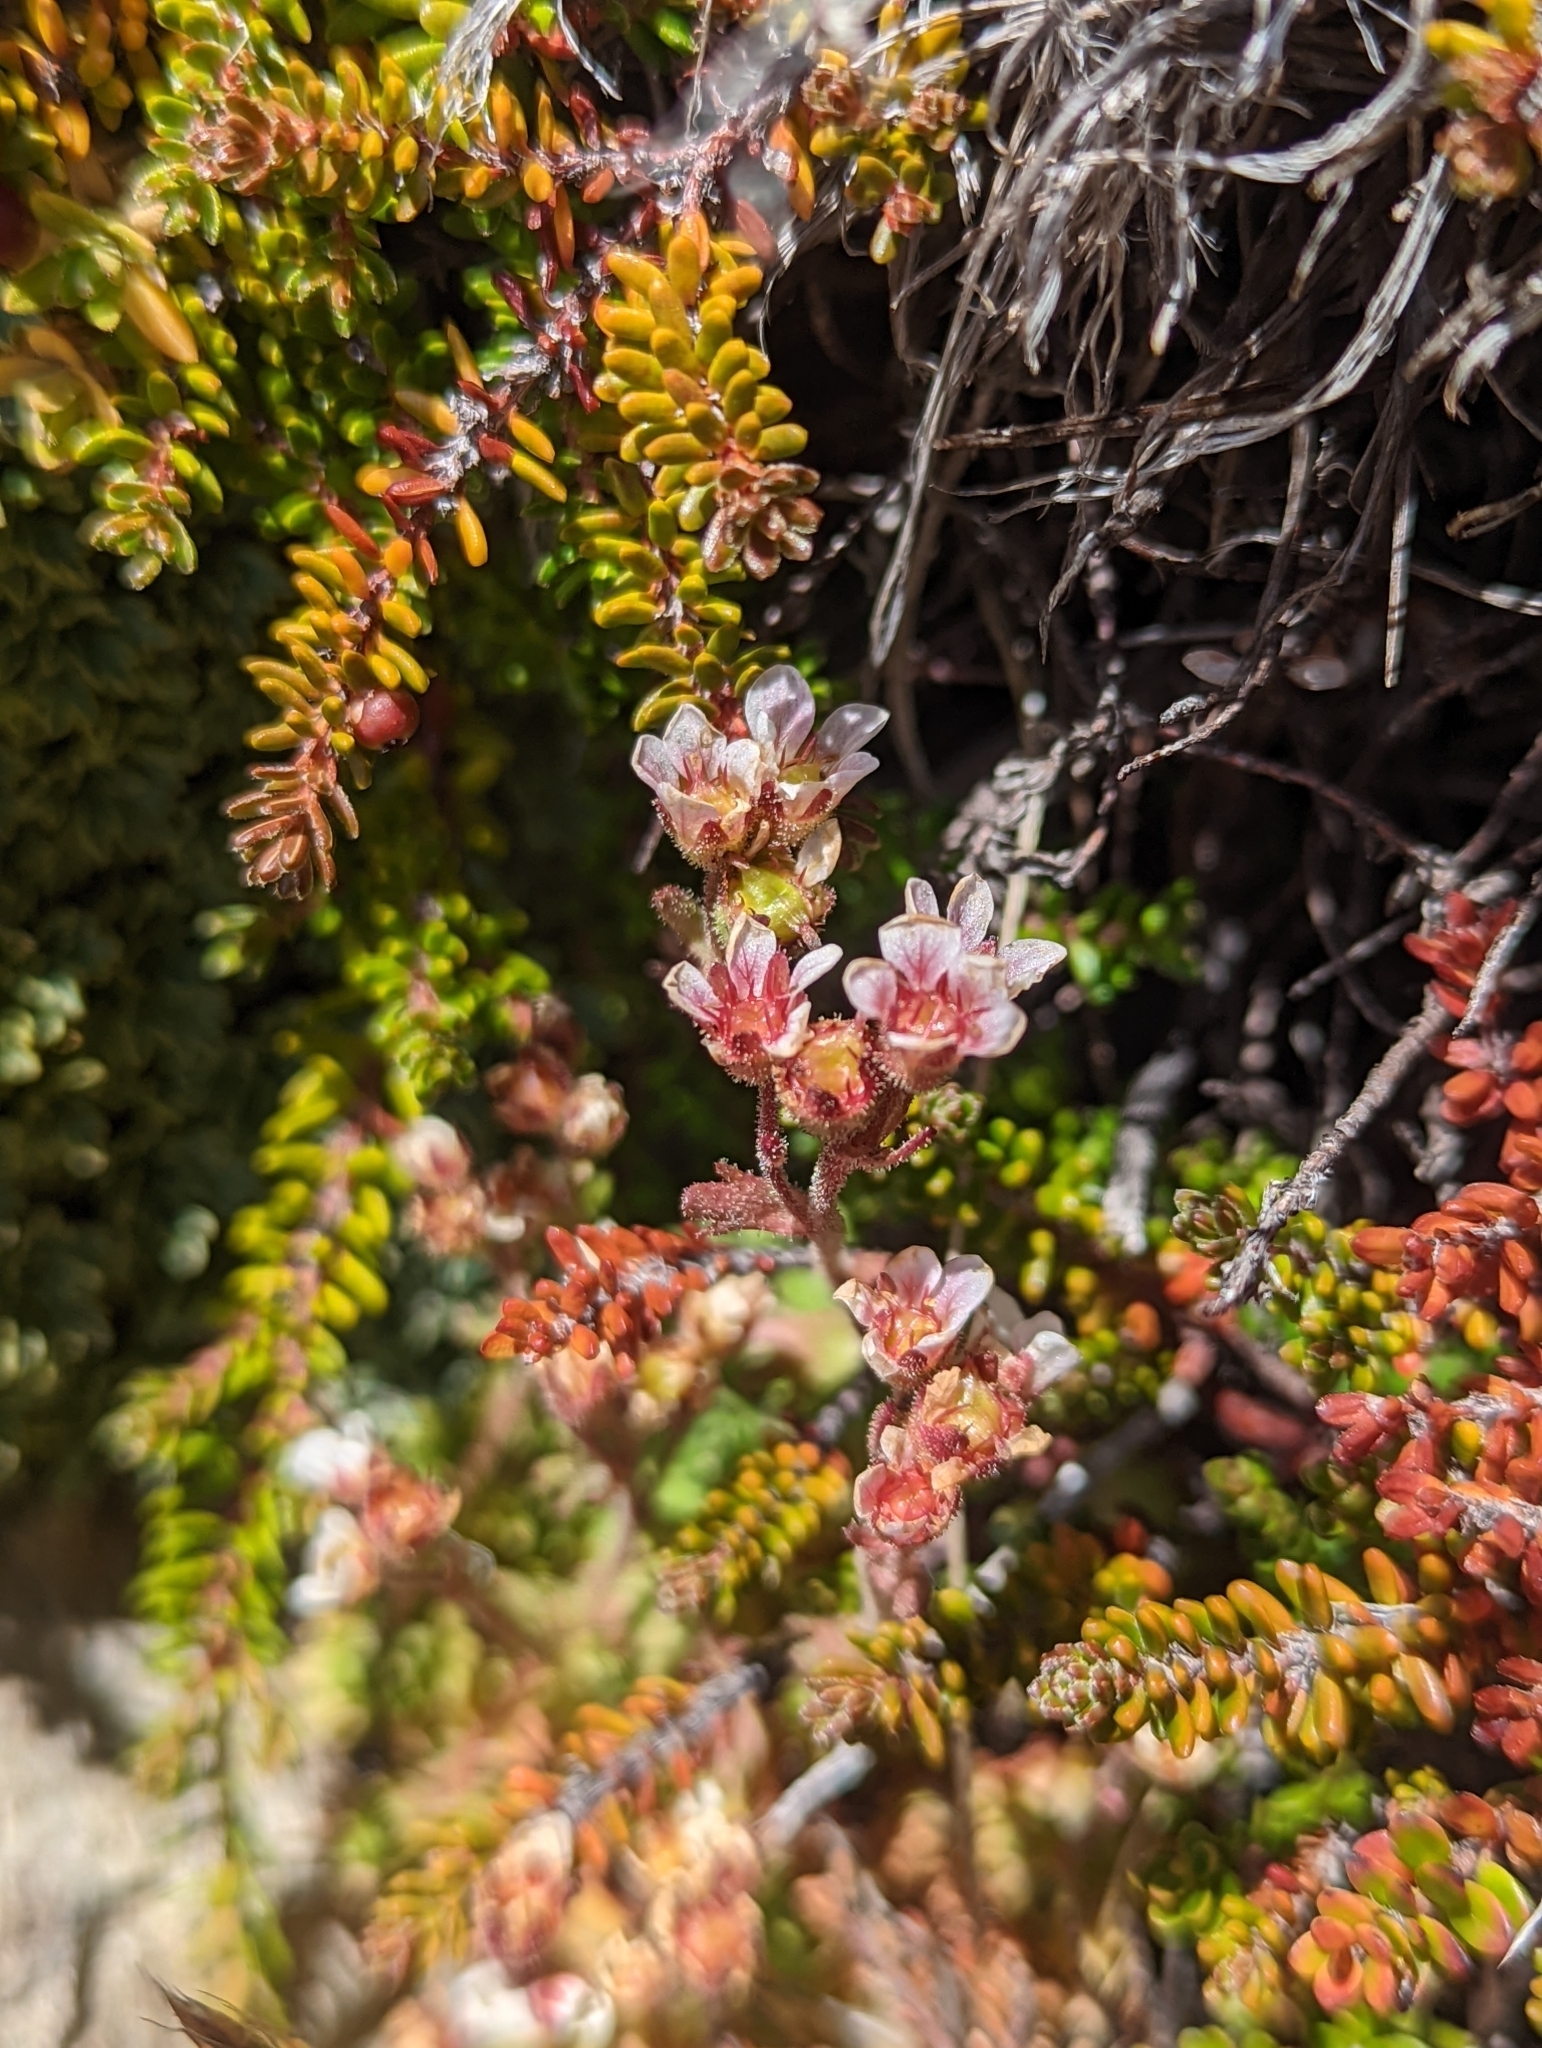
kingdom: Plantae
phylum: Tracheophyta
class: Magnoliopsida
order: Saxifragales
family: Saxifragaceae
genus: Saxifraga
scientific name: Saxifraga magellanica
